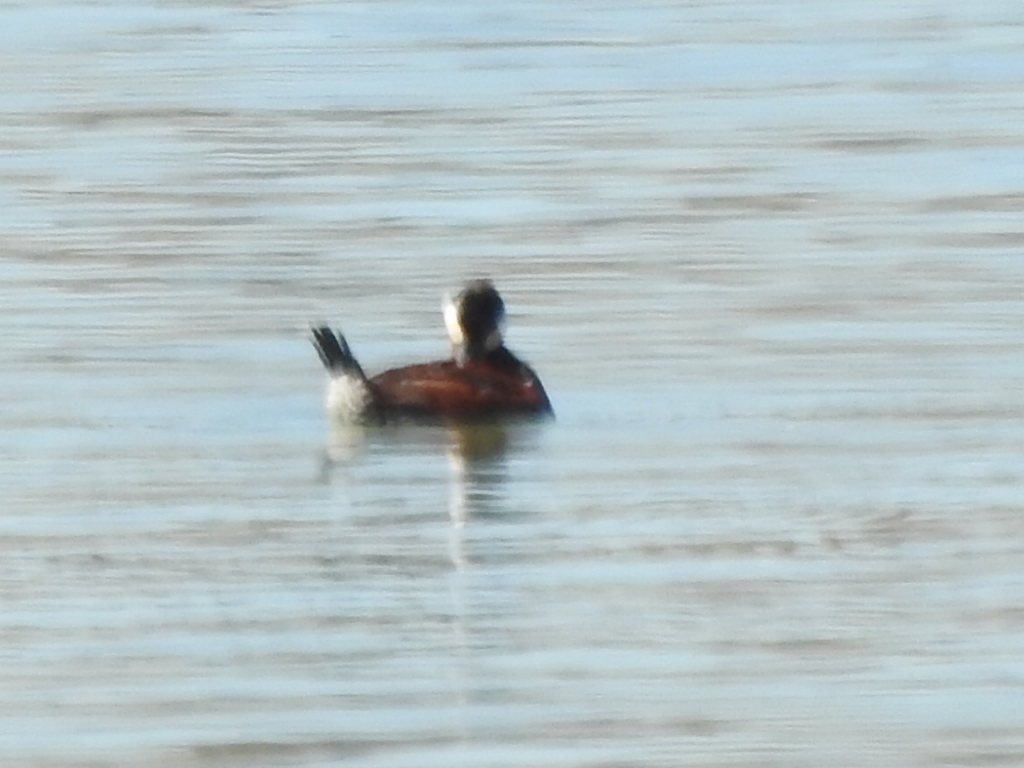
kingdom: Animalia
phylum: Chordata
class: Aves
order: Anseriformes
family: Anatidae
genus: Oxyura
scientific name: Oxyura jamaicensis
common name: Ruddy duck
